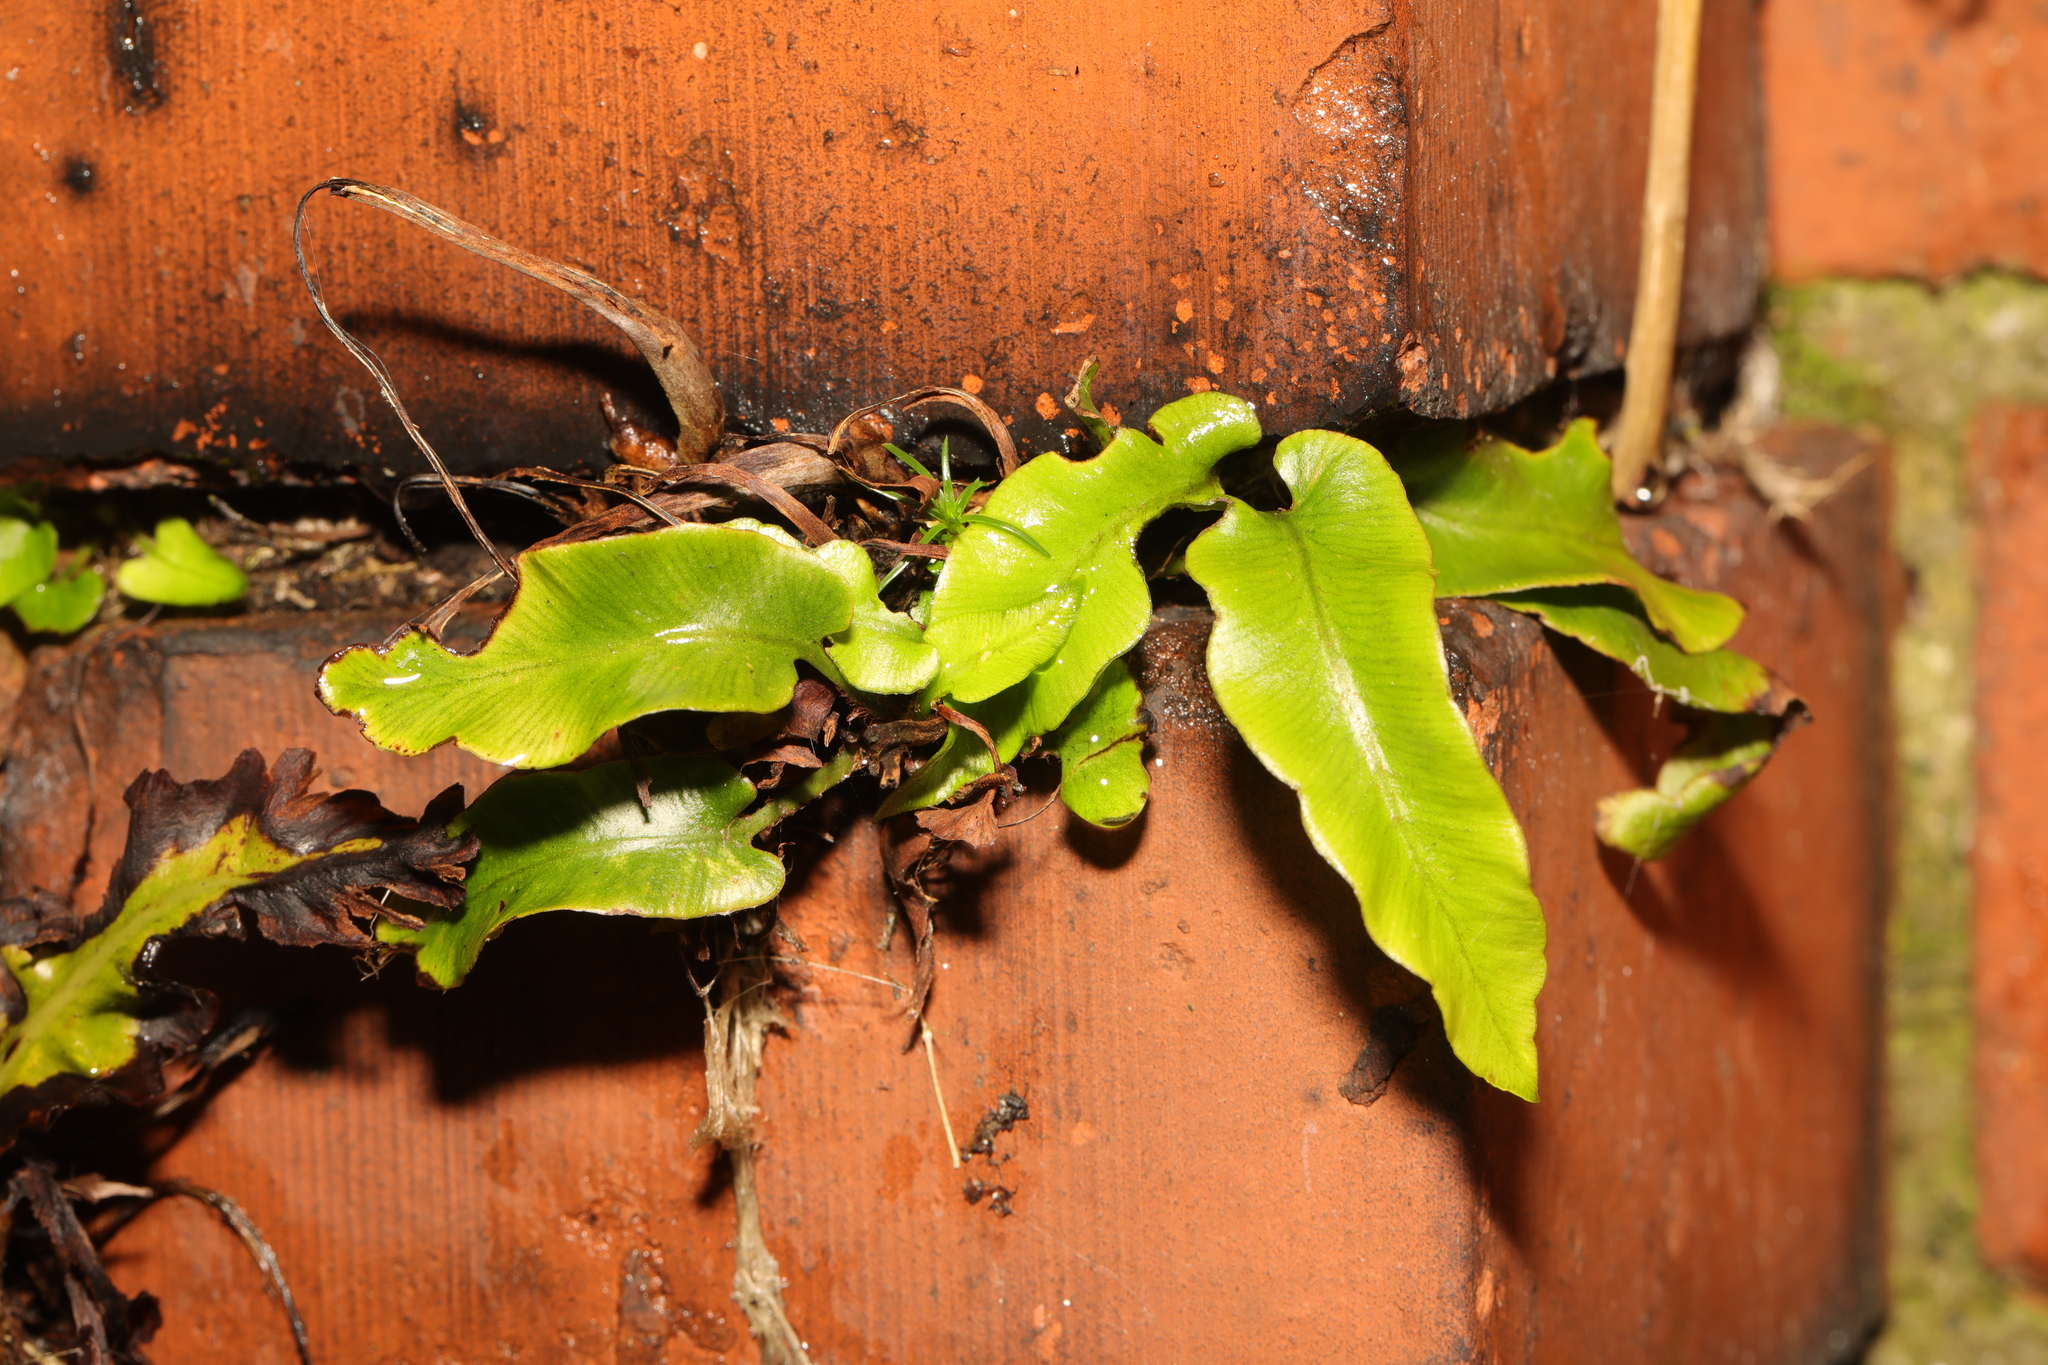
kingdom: Plantae
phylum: Tracheophyta
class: Polypodiopsida
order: Polypodiales
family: Aspleniaceae
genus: Asplenium
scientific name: Asplenium scolopendrium
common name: Hart's-tongue fern
